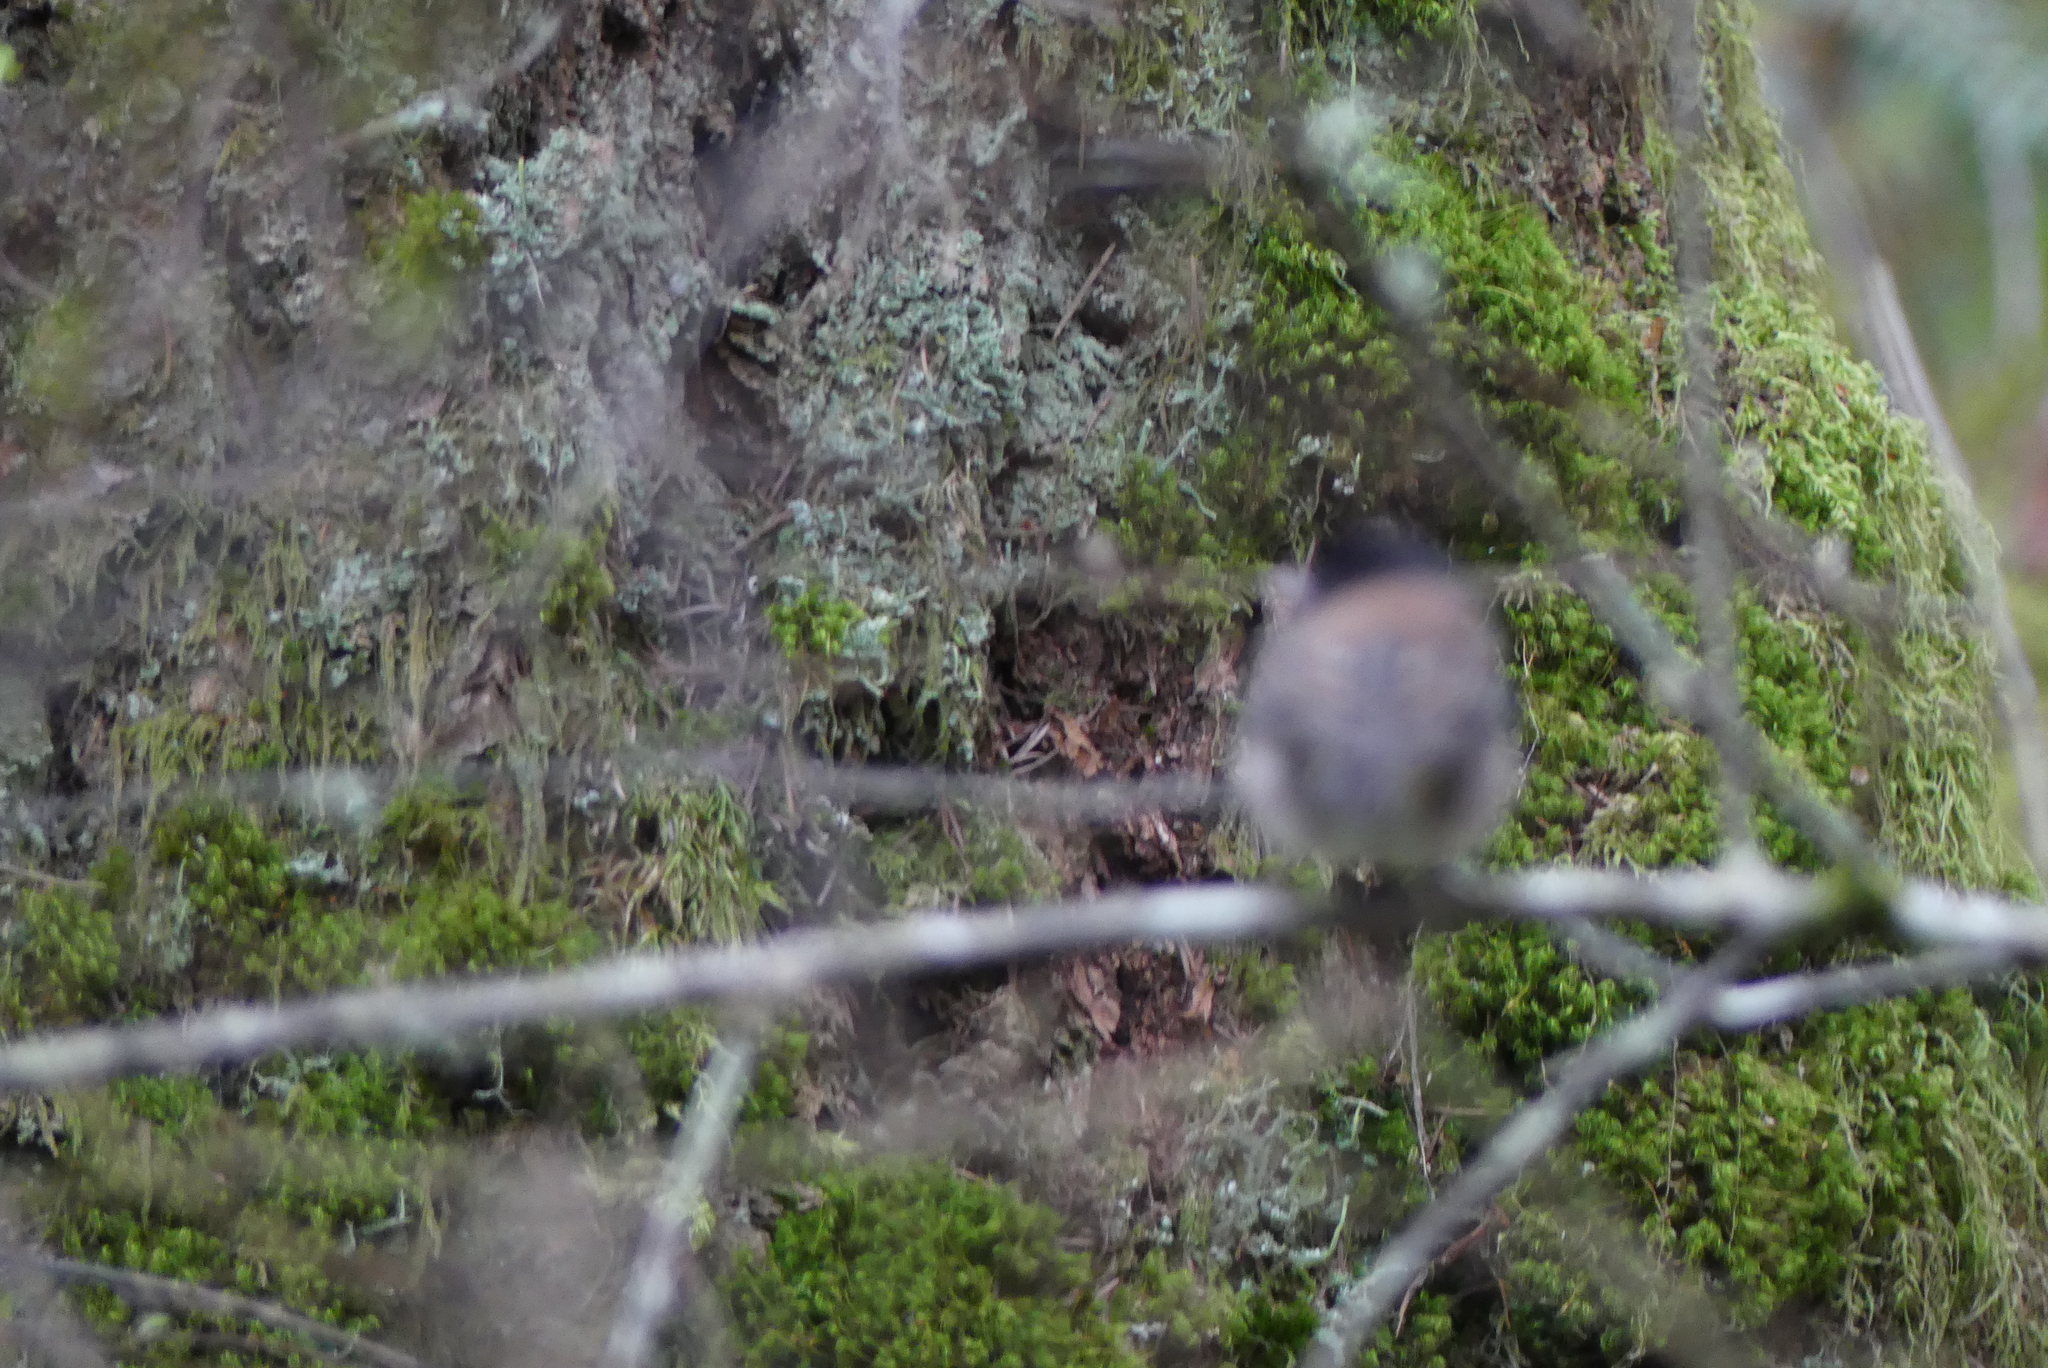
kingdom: Animalia
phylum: Chordata
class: Aves
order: Passeriformes
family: Passerellidae
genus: Junco
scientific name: Junco hyemalis
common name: Dark-eyed junco
